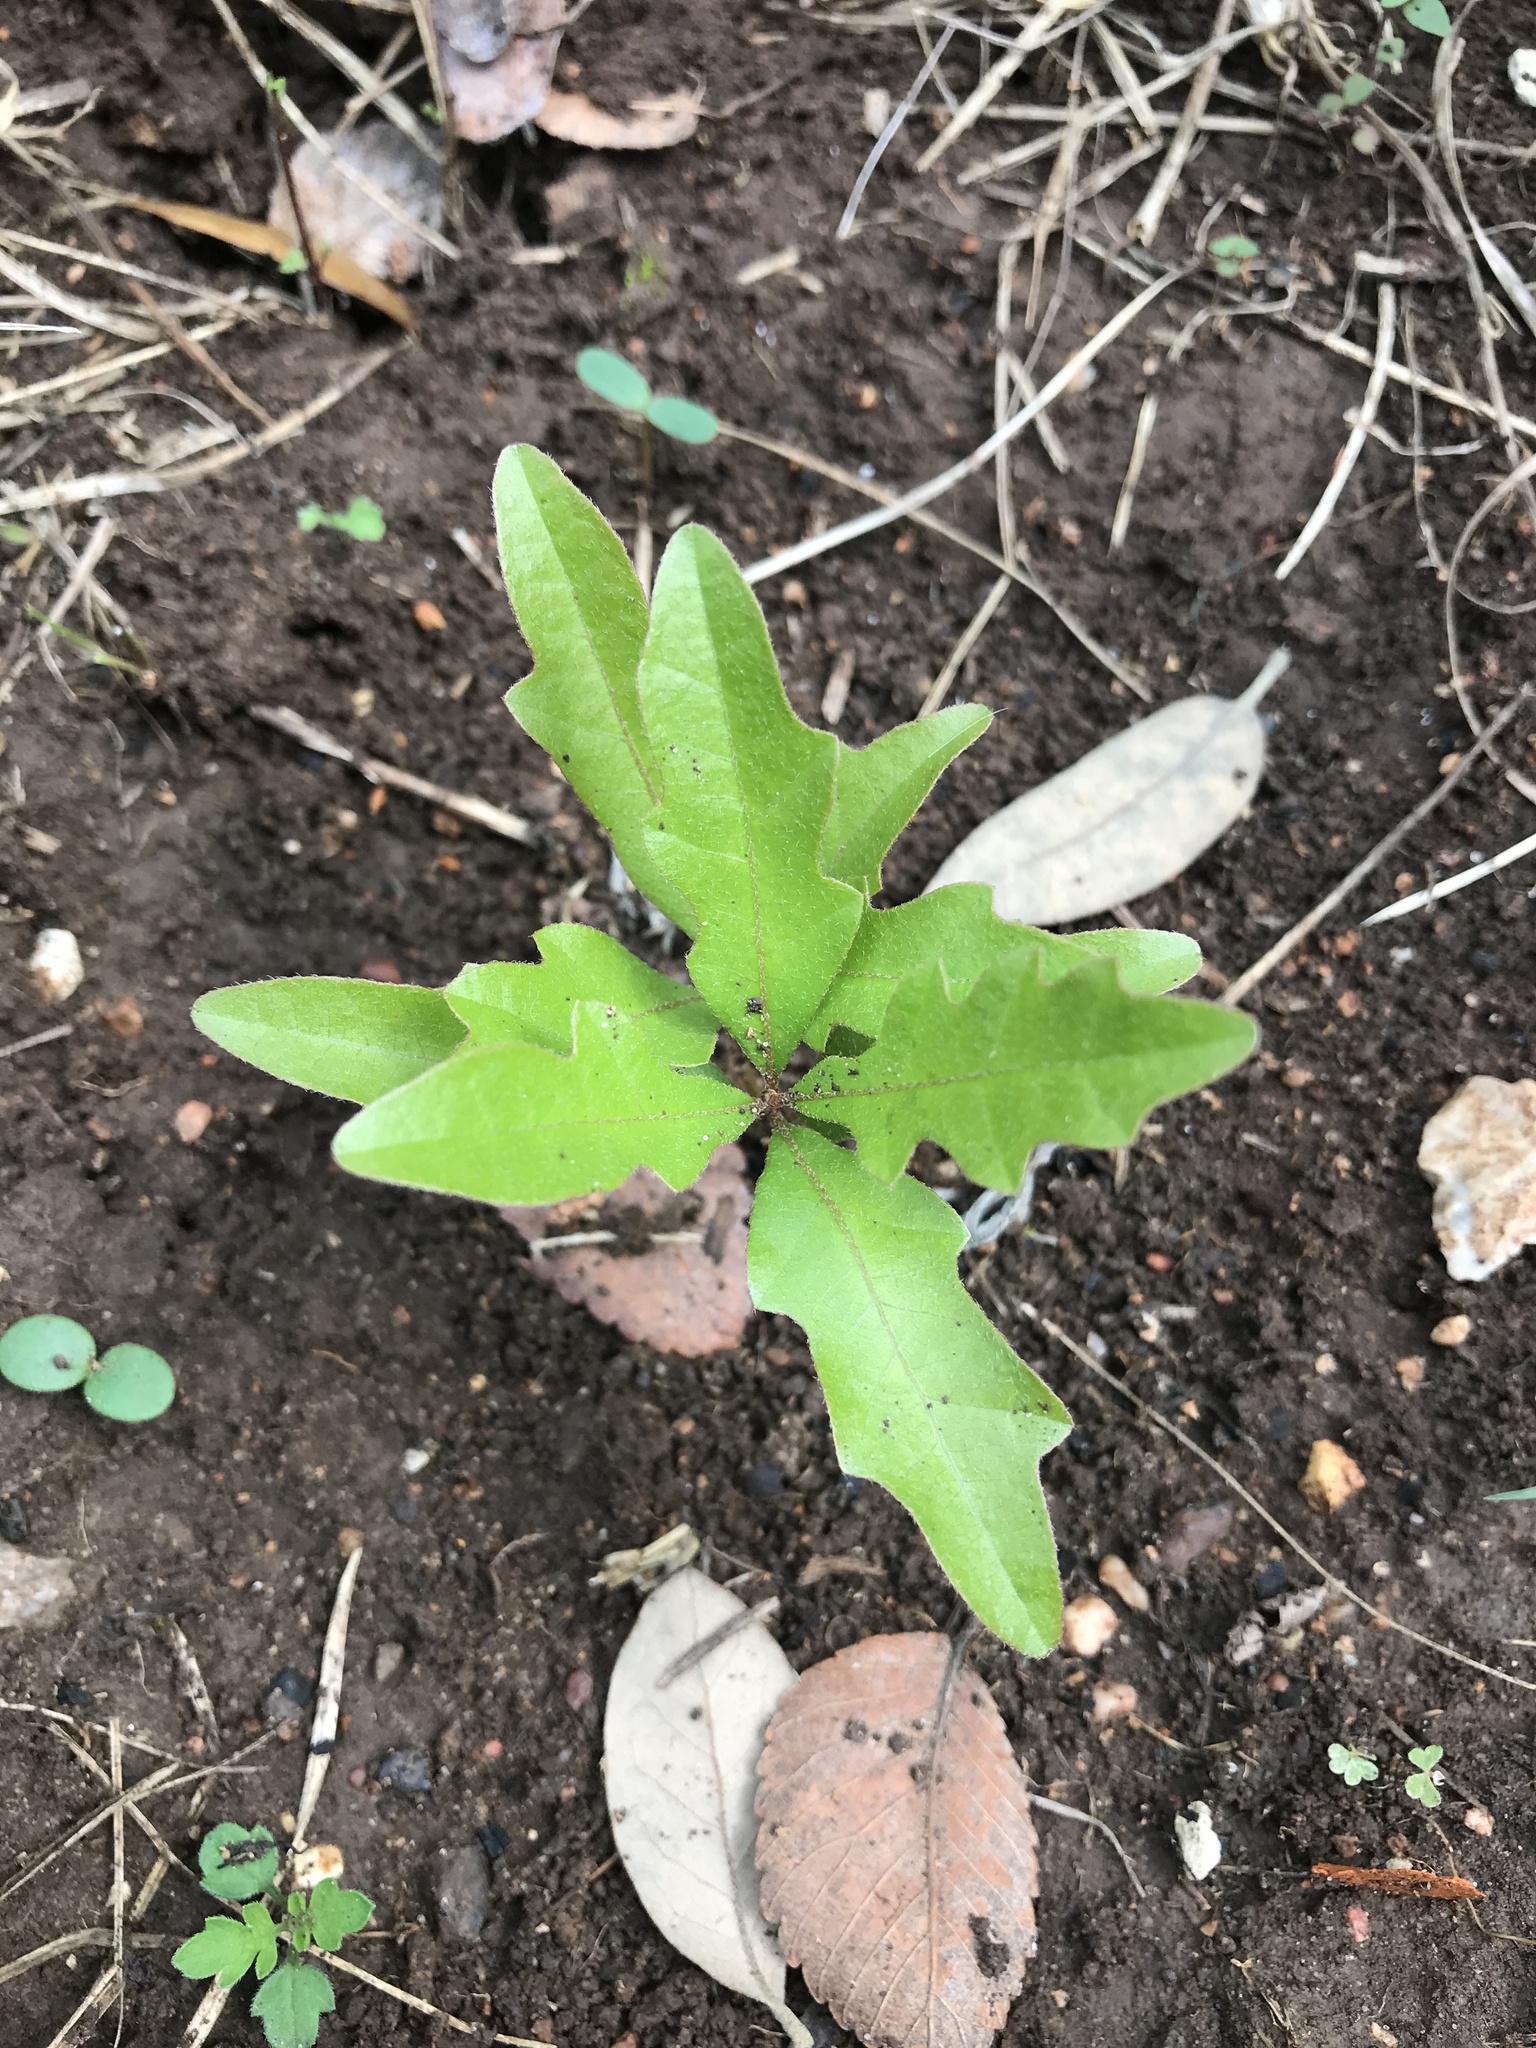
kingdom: Plantae
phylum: Tracheophyta
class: Magnoliopsida
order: Fagales
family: Fagaceae
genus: Quercus
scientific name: Quercus sinuata
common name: Durand oak
